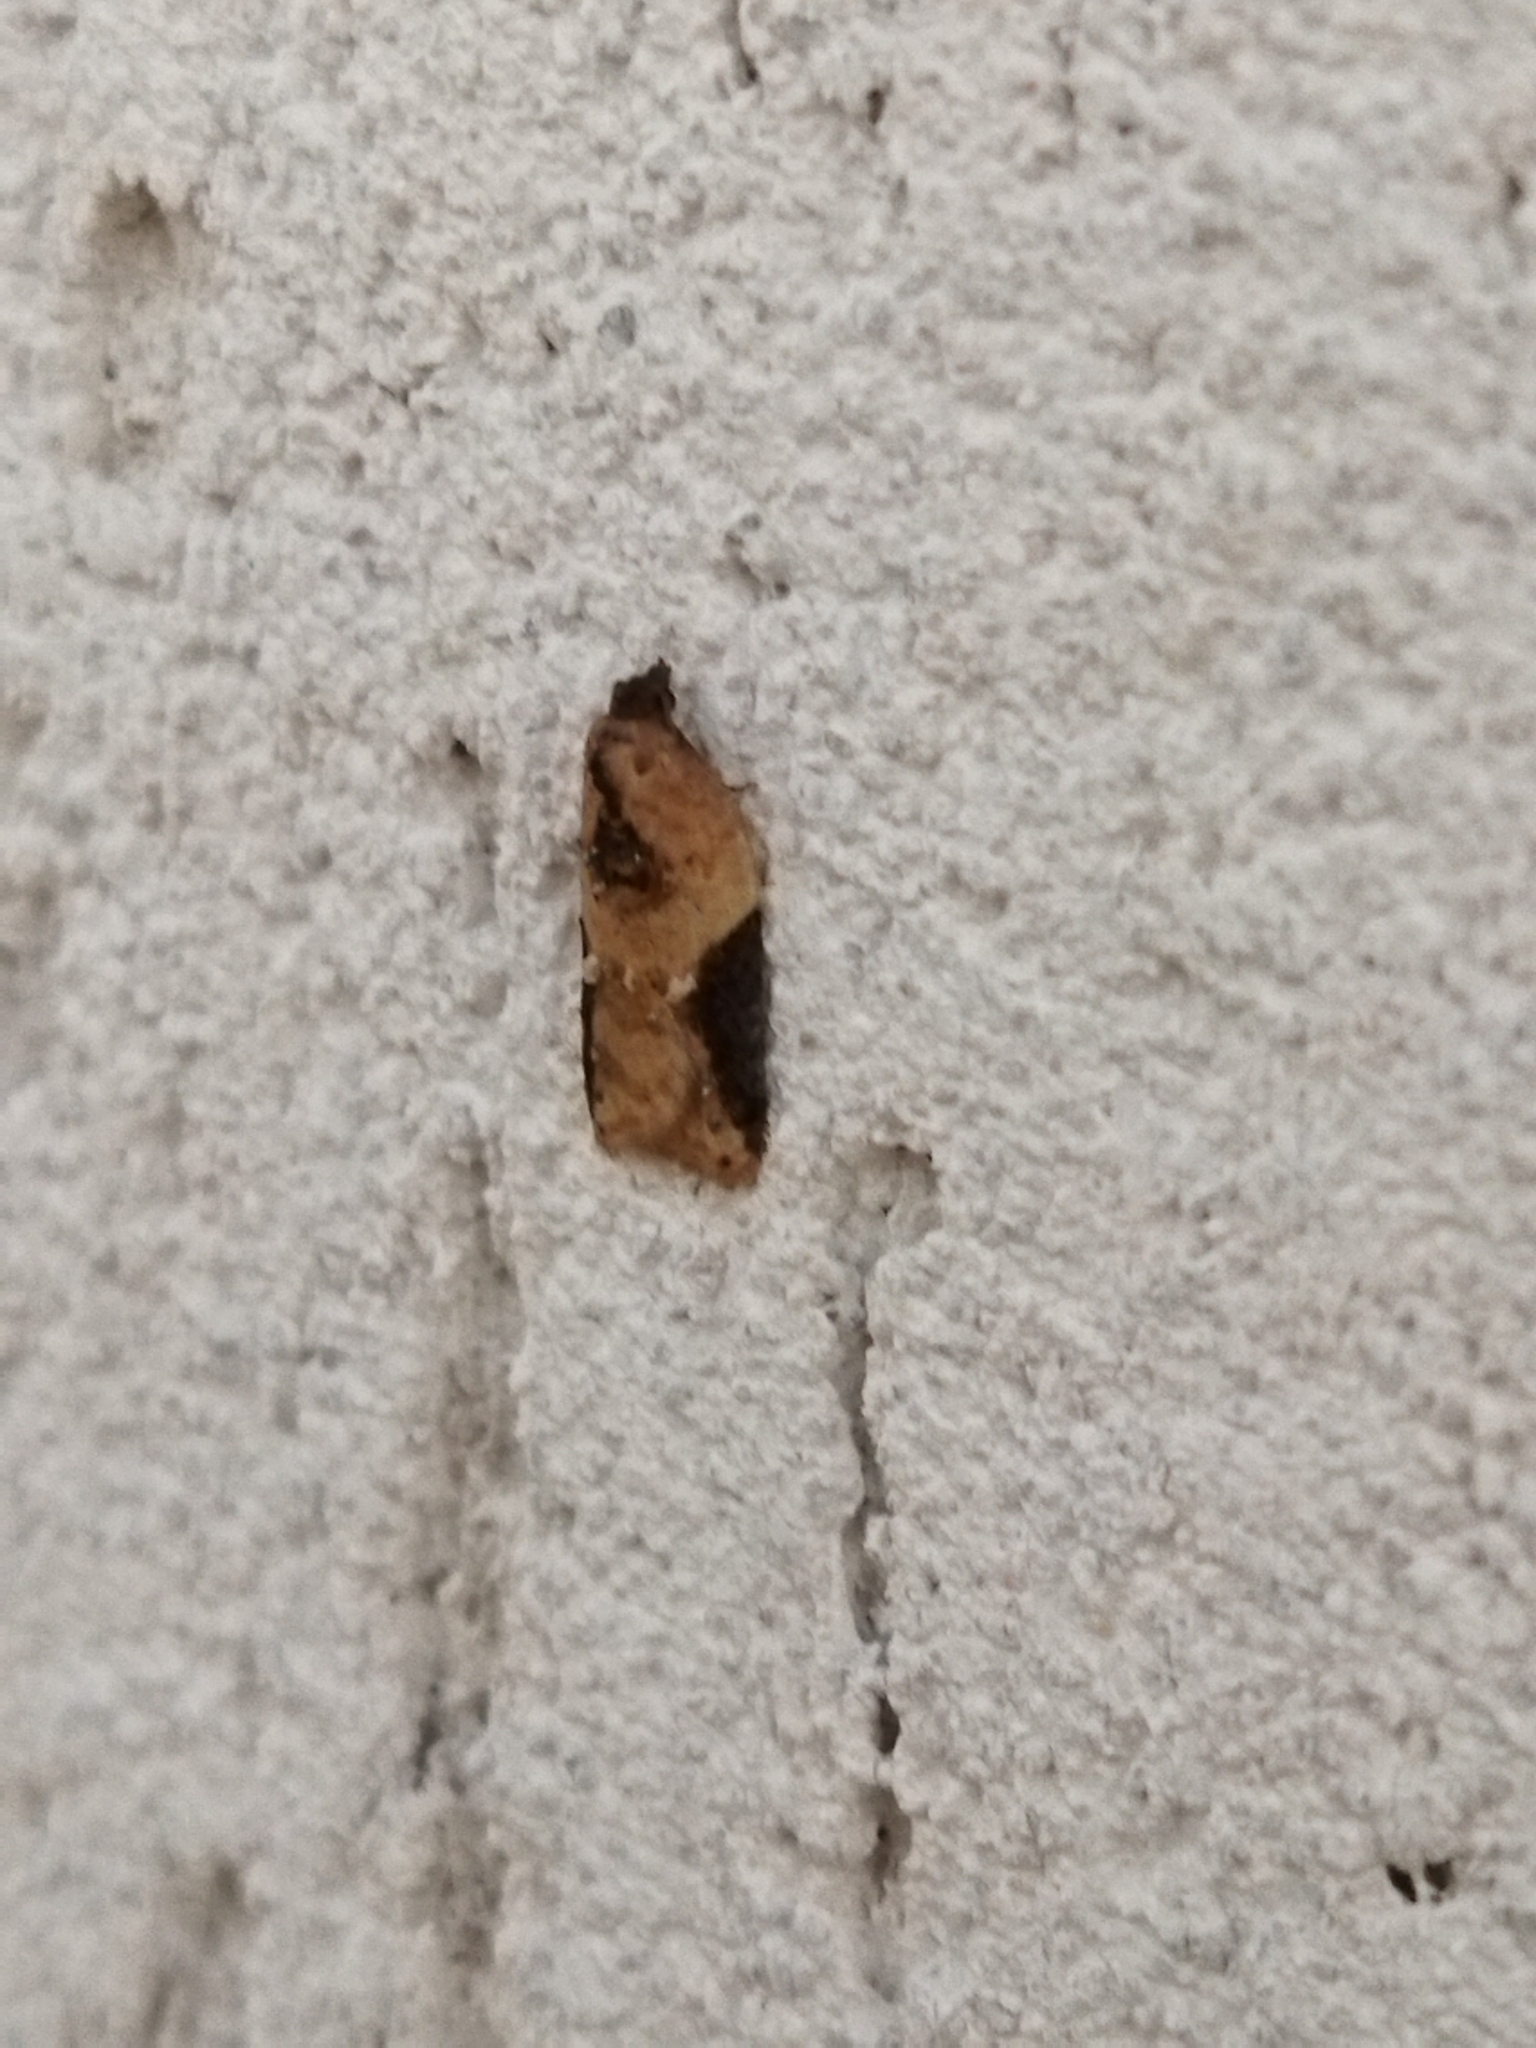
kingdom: Animalia
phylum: Arthropoda
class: Insecta
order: Lepidoptera
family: Tortricidae
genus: Acleris
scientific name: Acleris laterana
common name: Dark-triangle button
